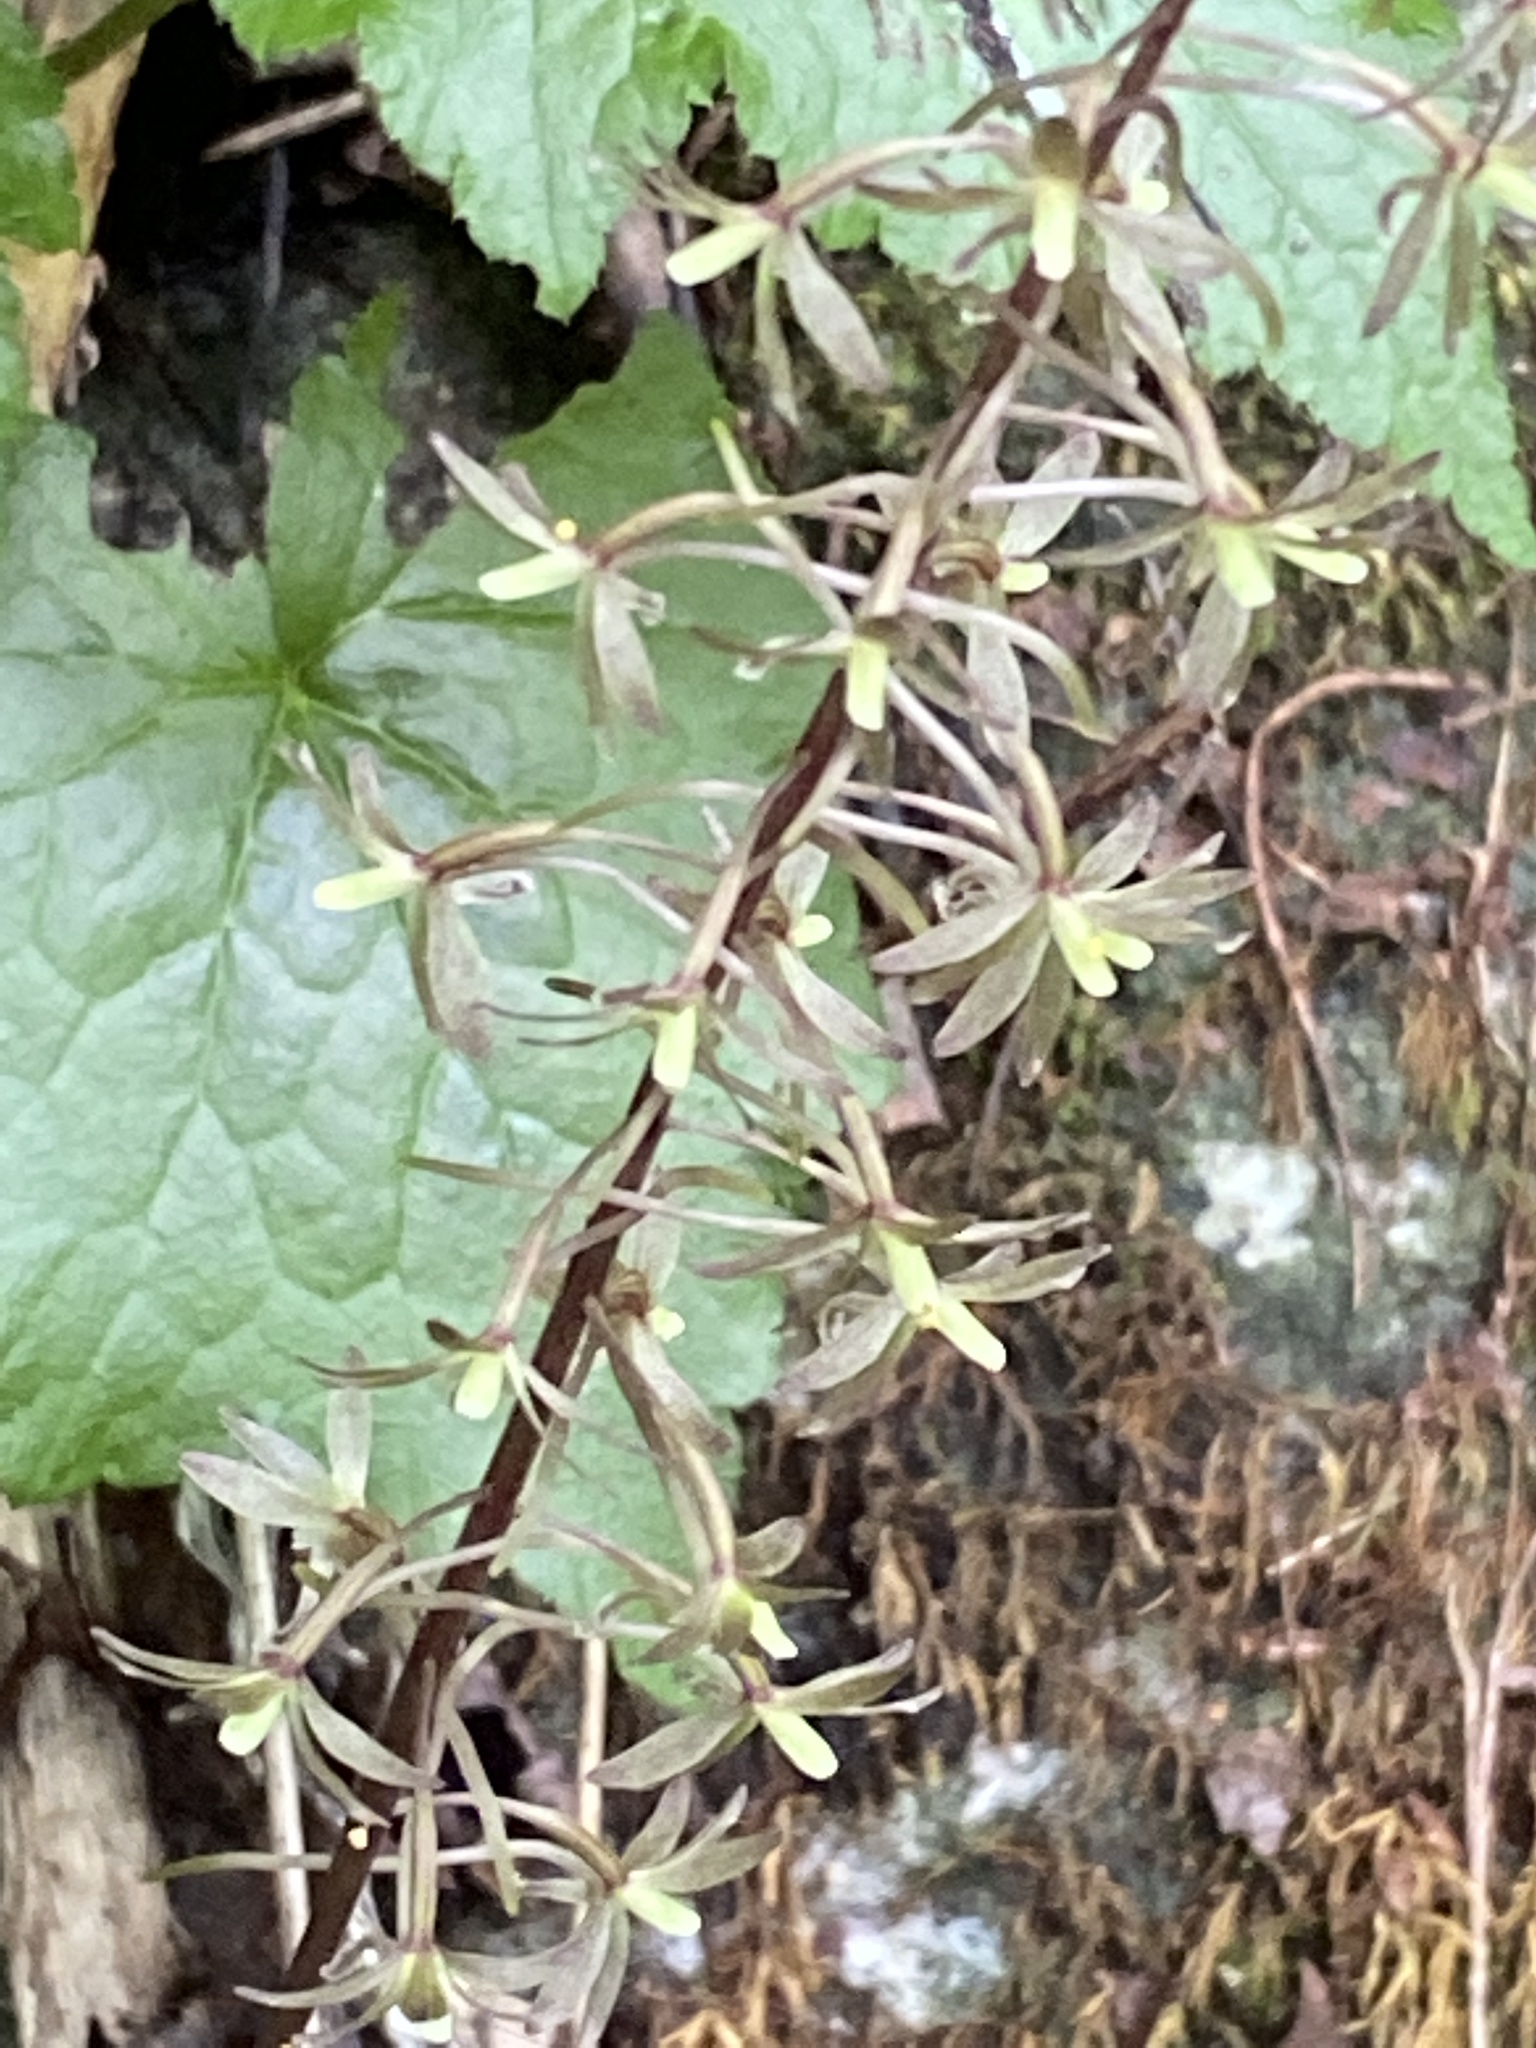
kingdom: Plantae
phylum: Tracheophyta
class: Liliopsida
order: Asparagales
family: Orchidaceae
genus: Tipularia
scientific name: Tipularia discolor
